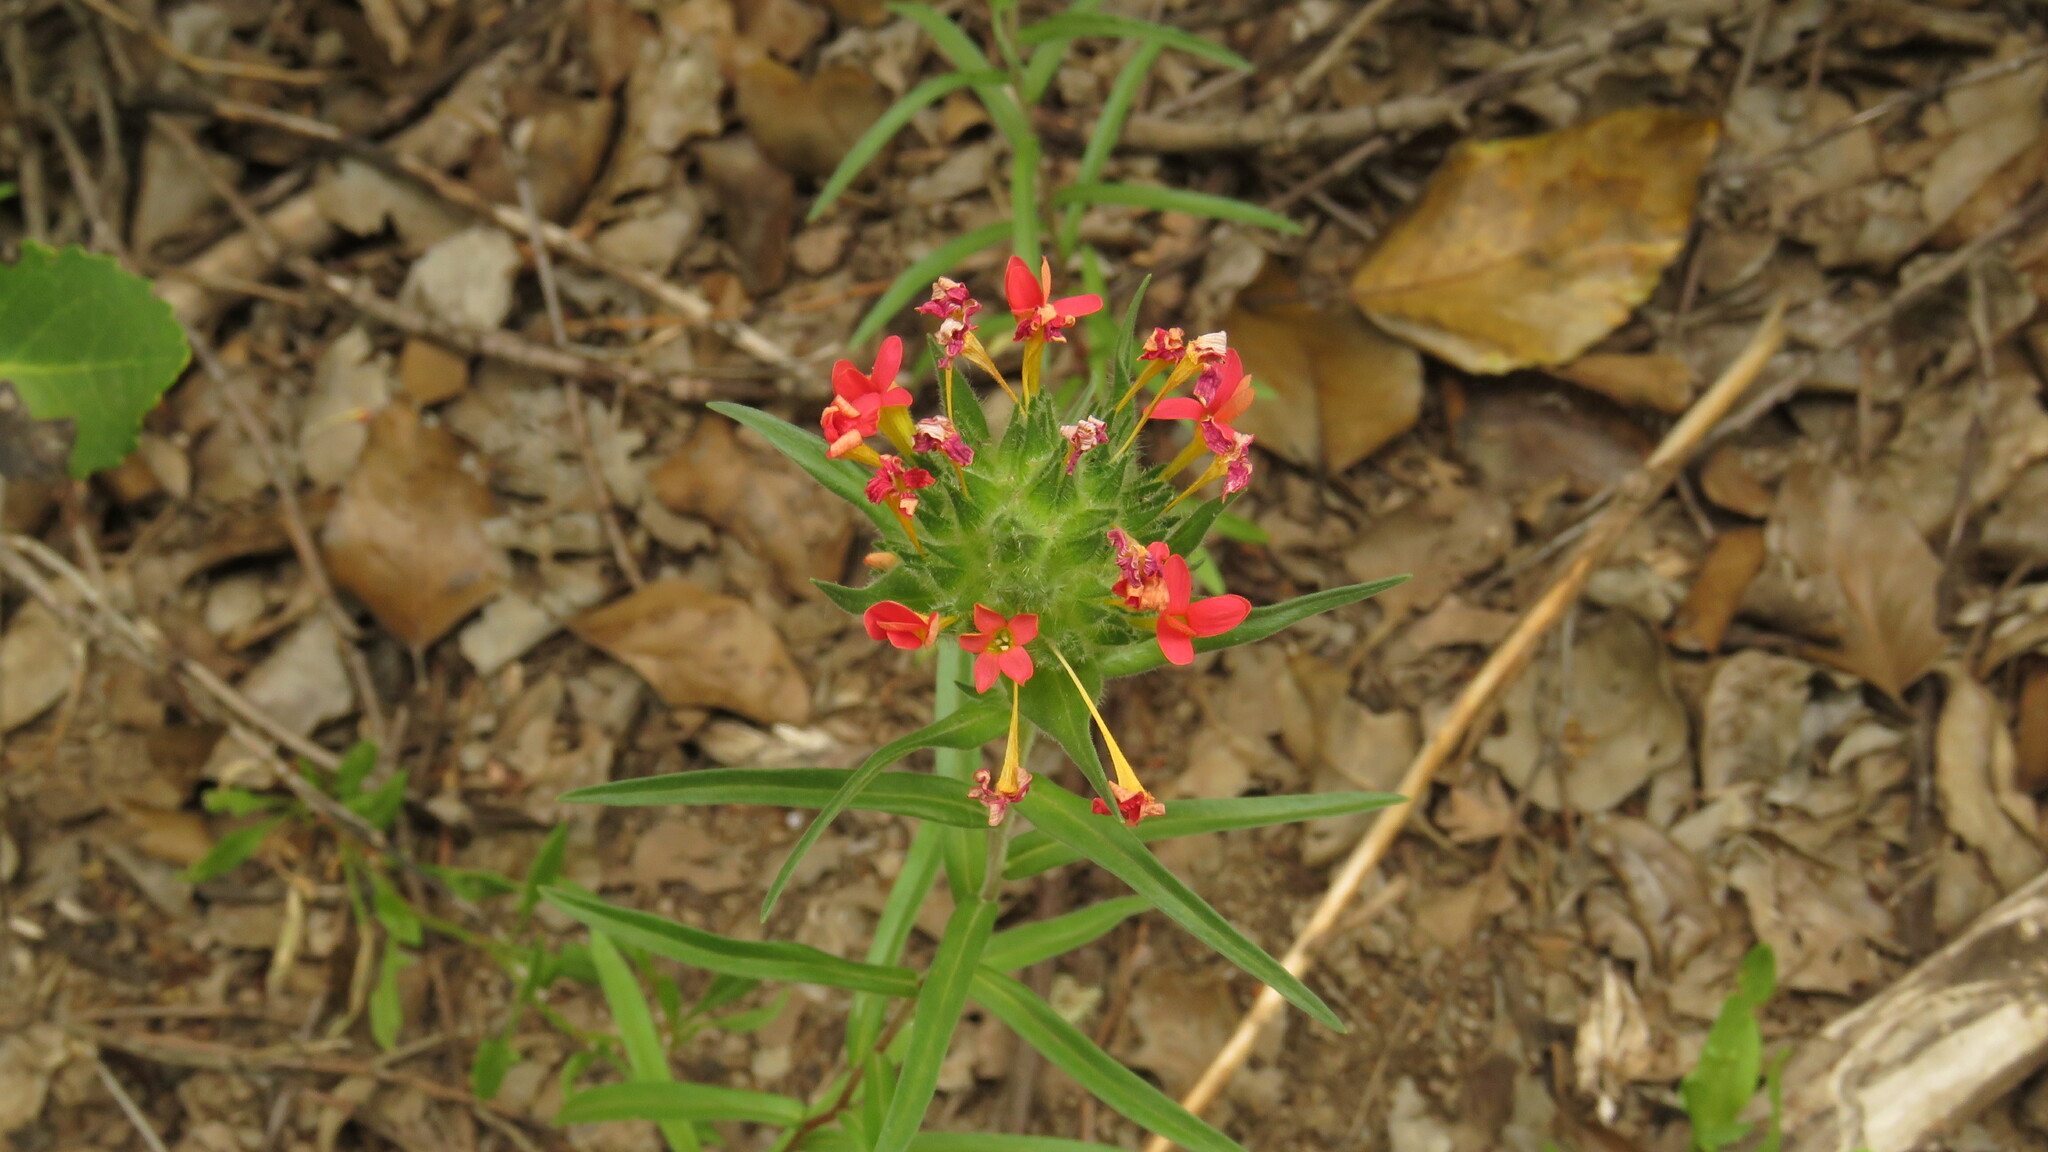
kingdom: Plantae
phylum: Tracheophyta
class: Magnoliopsida
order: Ericales
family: Polemoniaceae
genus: Collomia
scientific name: Collomia biflora
